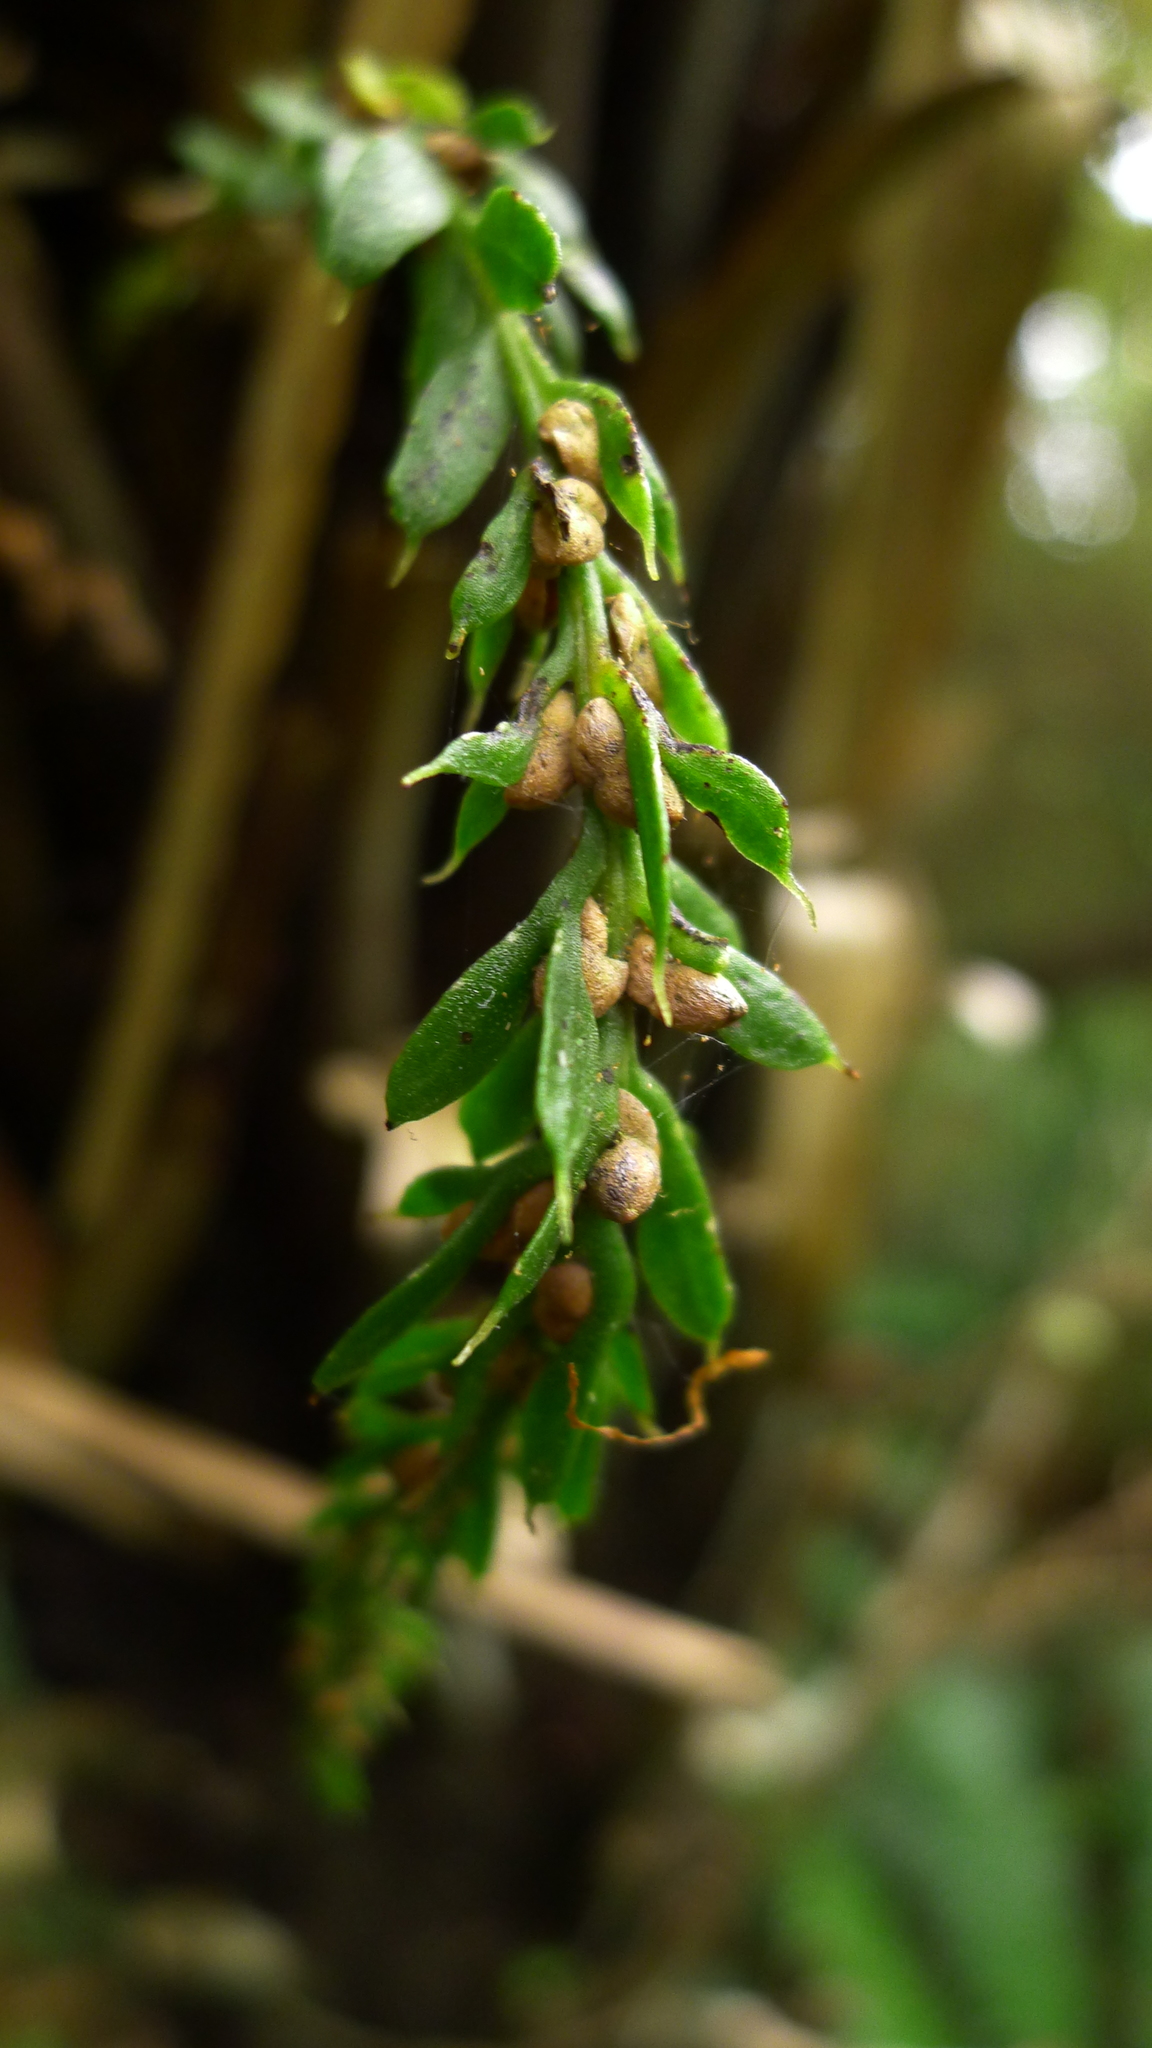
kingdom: Plantae
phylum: Tracheophyta
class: Polypodiopsida
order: Psilotales
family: Psilotaceae
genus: Tmesipteris
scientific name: Tmesipteris elongata
